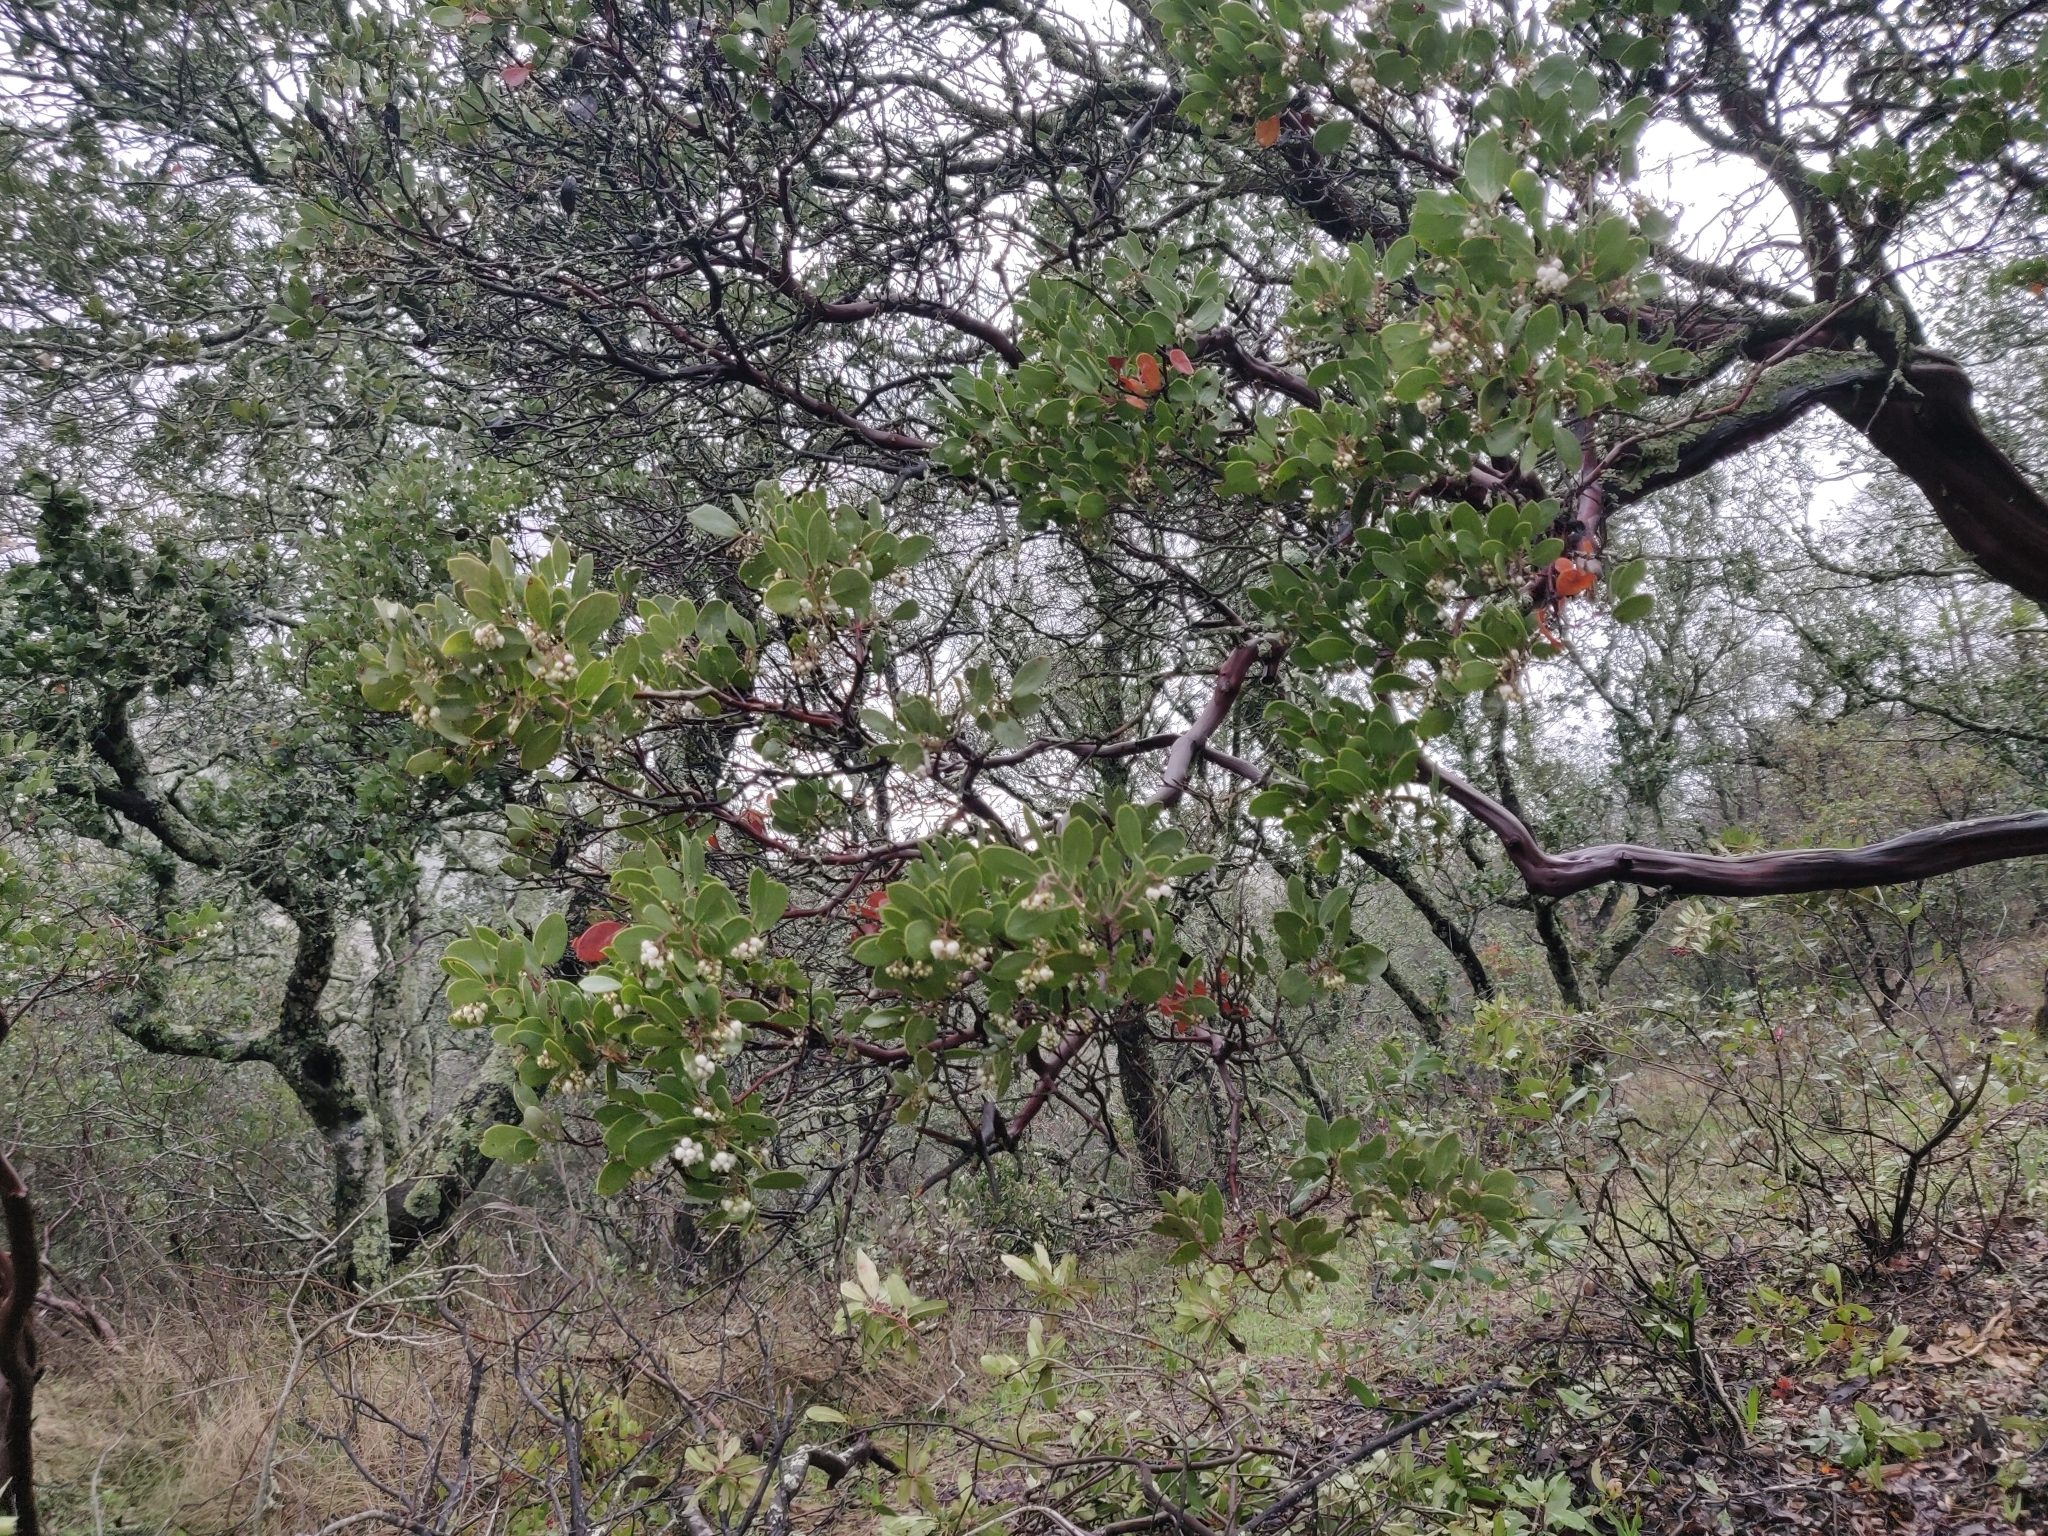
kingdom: Plantae
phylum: Tracheophyta
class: Magnoliopsida
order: Ericales
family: Ericaceae
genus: Arctostaphylos
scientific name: Arctostaphylos manzanita
